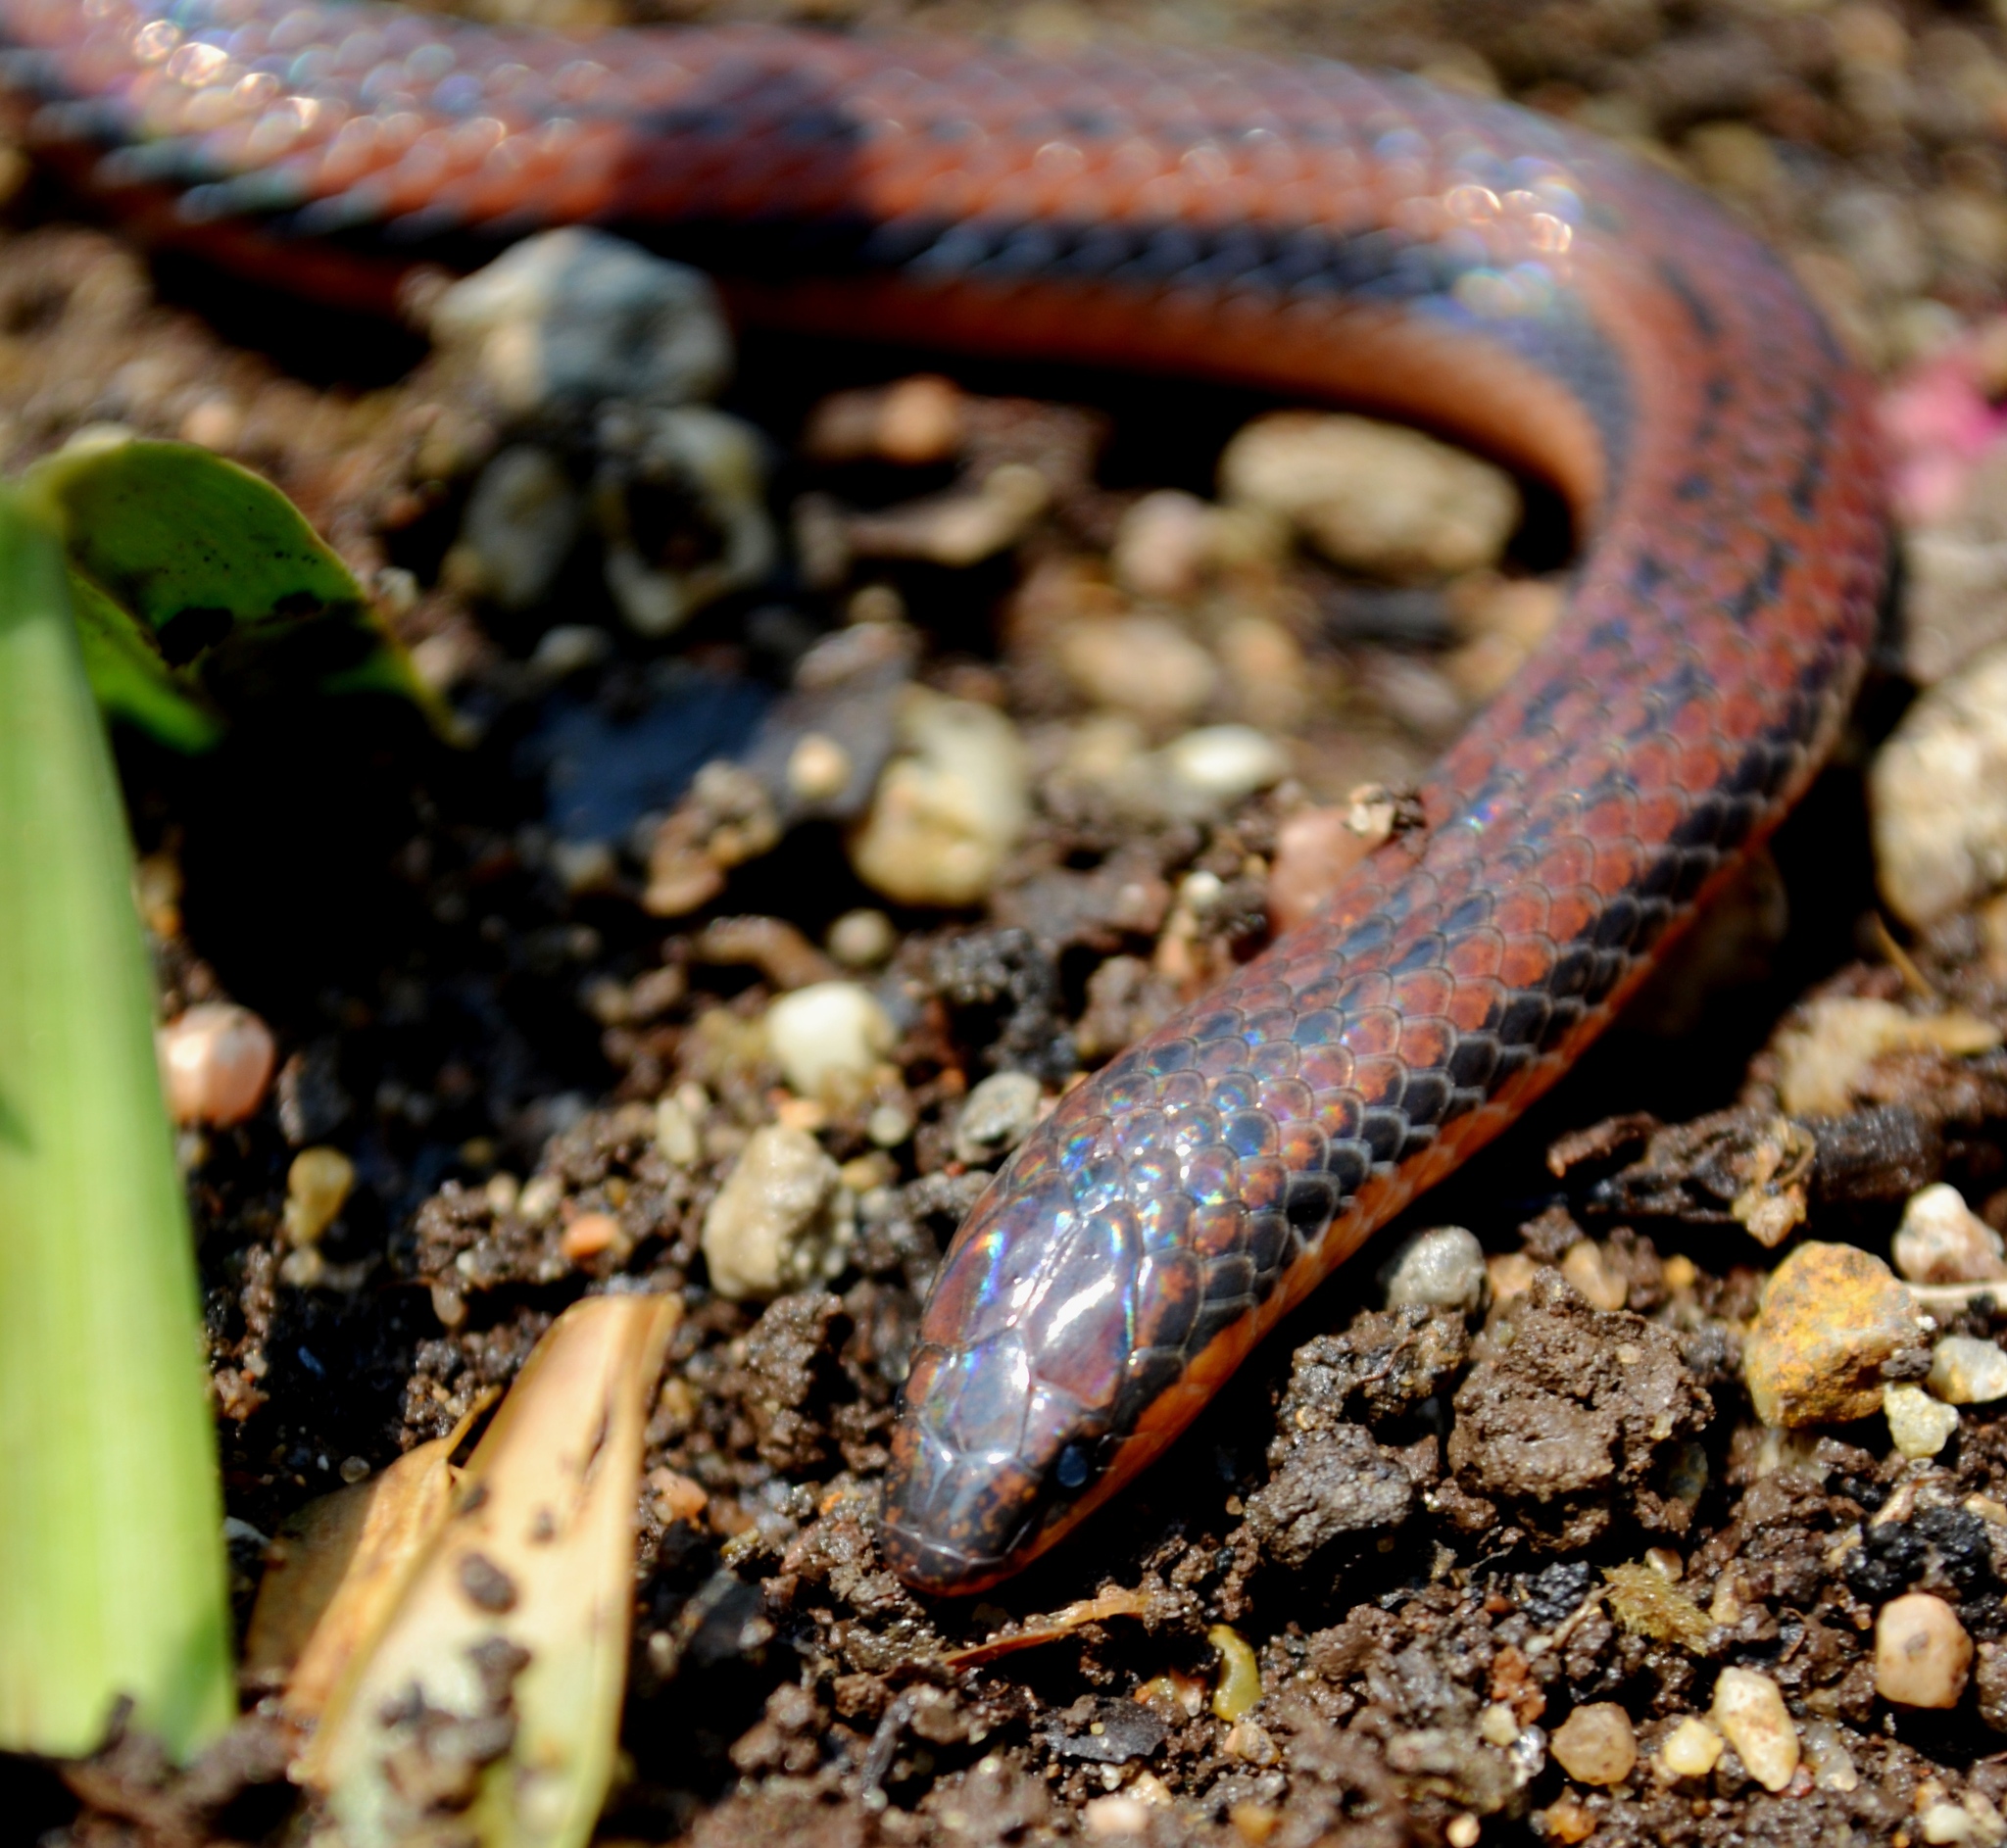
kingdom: Animalia
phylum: Chordata
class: Squamata
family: Colubridae
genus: Adelphicos
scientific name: Adelphicos nigrilatum
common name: Burrowing snake
